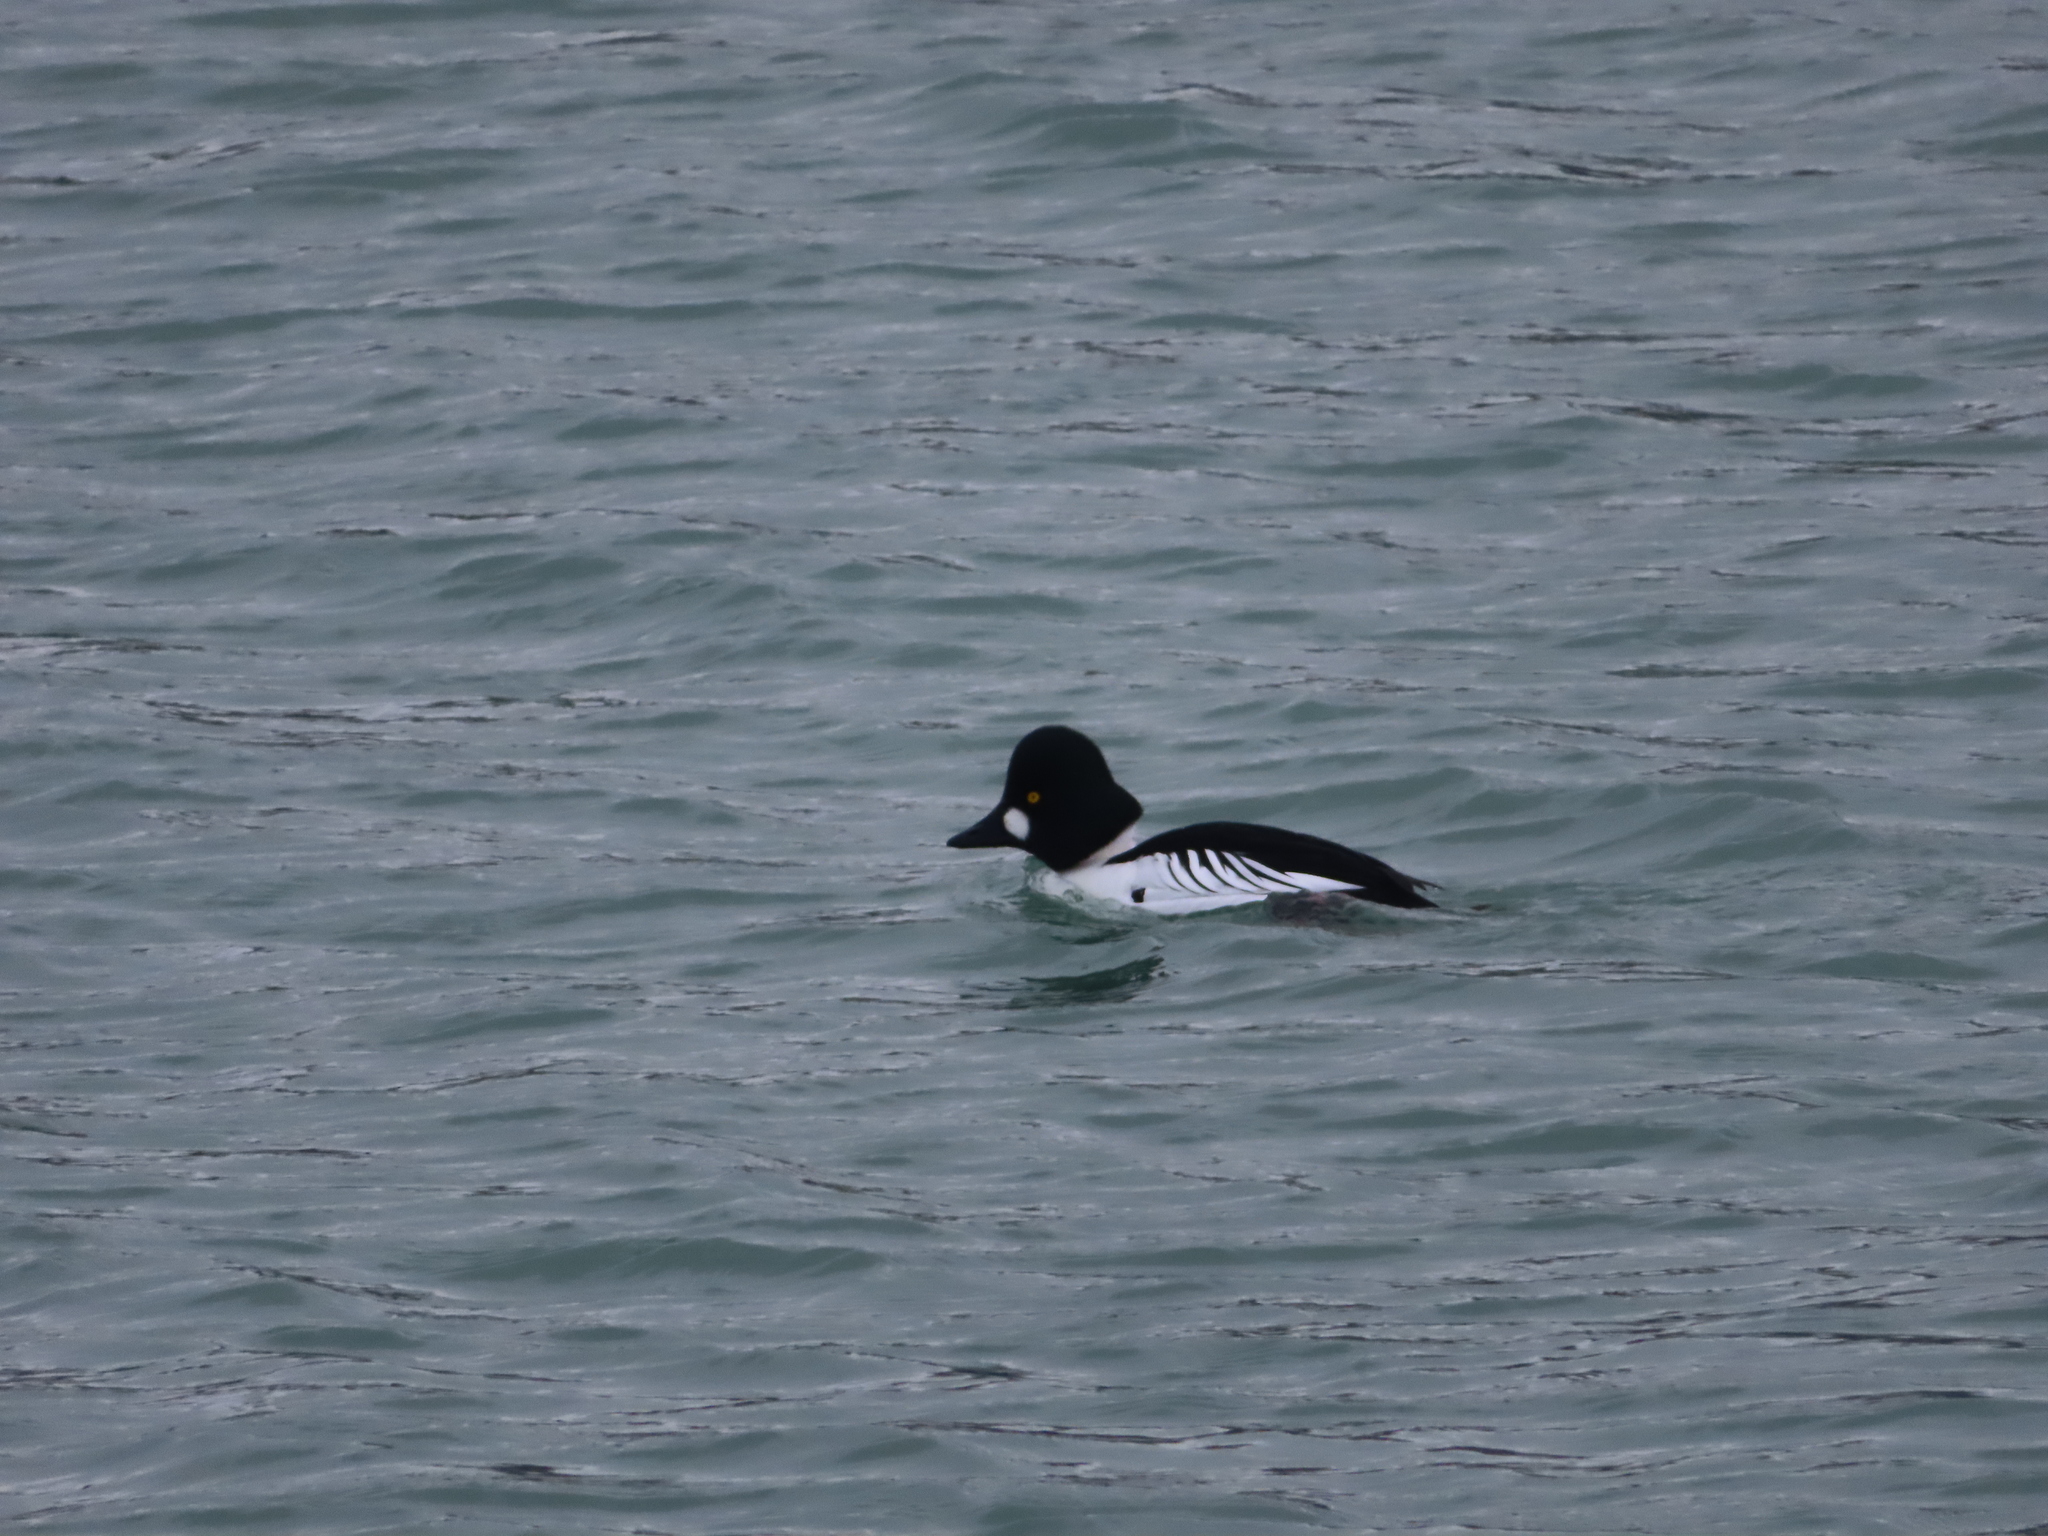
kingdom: Animalia
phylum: Chordata
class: Aves
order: Anseriformes
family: Anatidae
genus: Bucephala
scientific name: Bucephala clangula
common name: Common goldeneye
